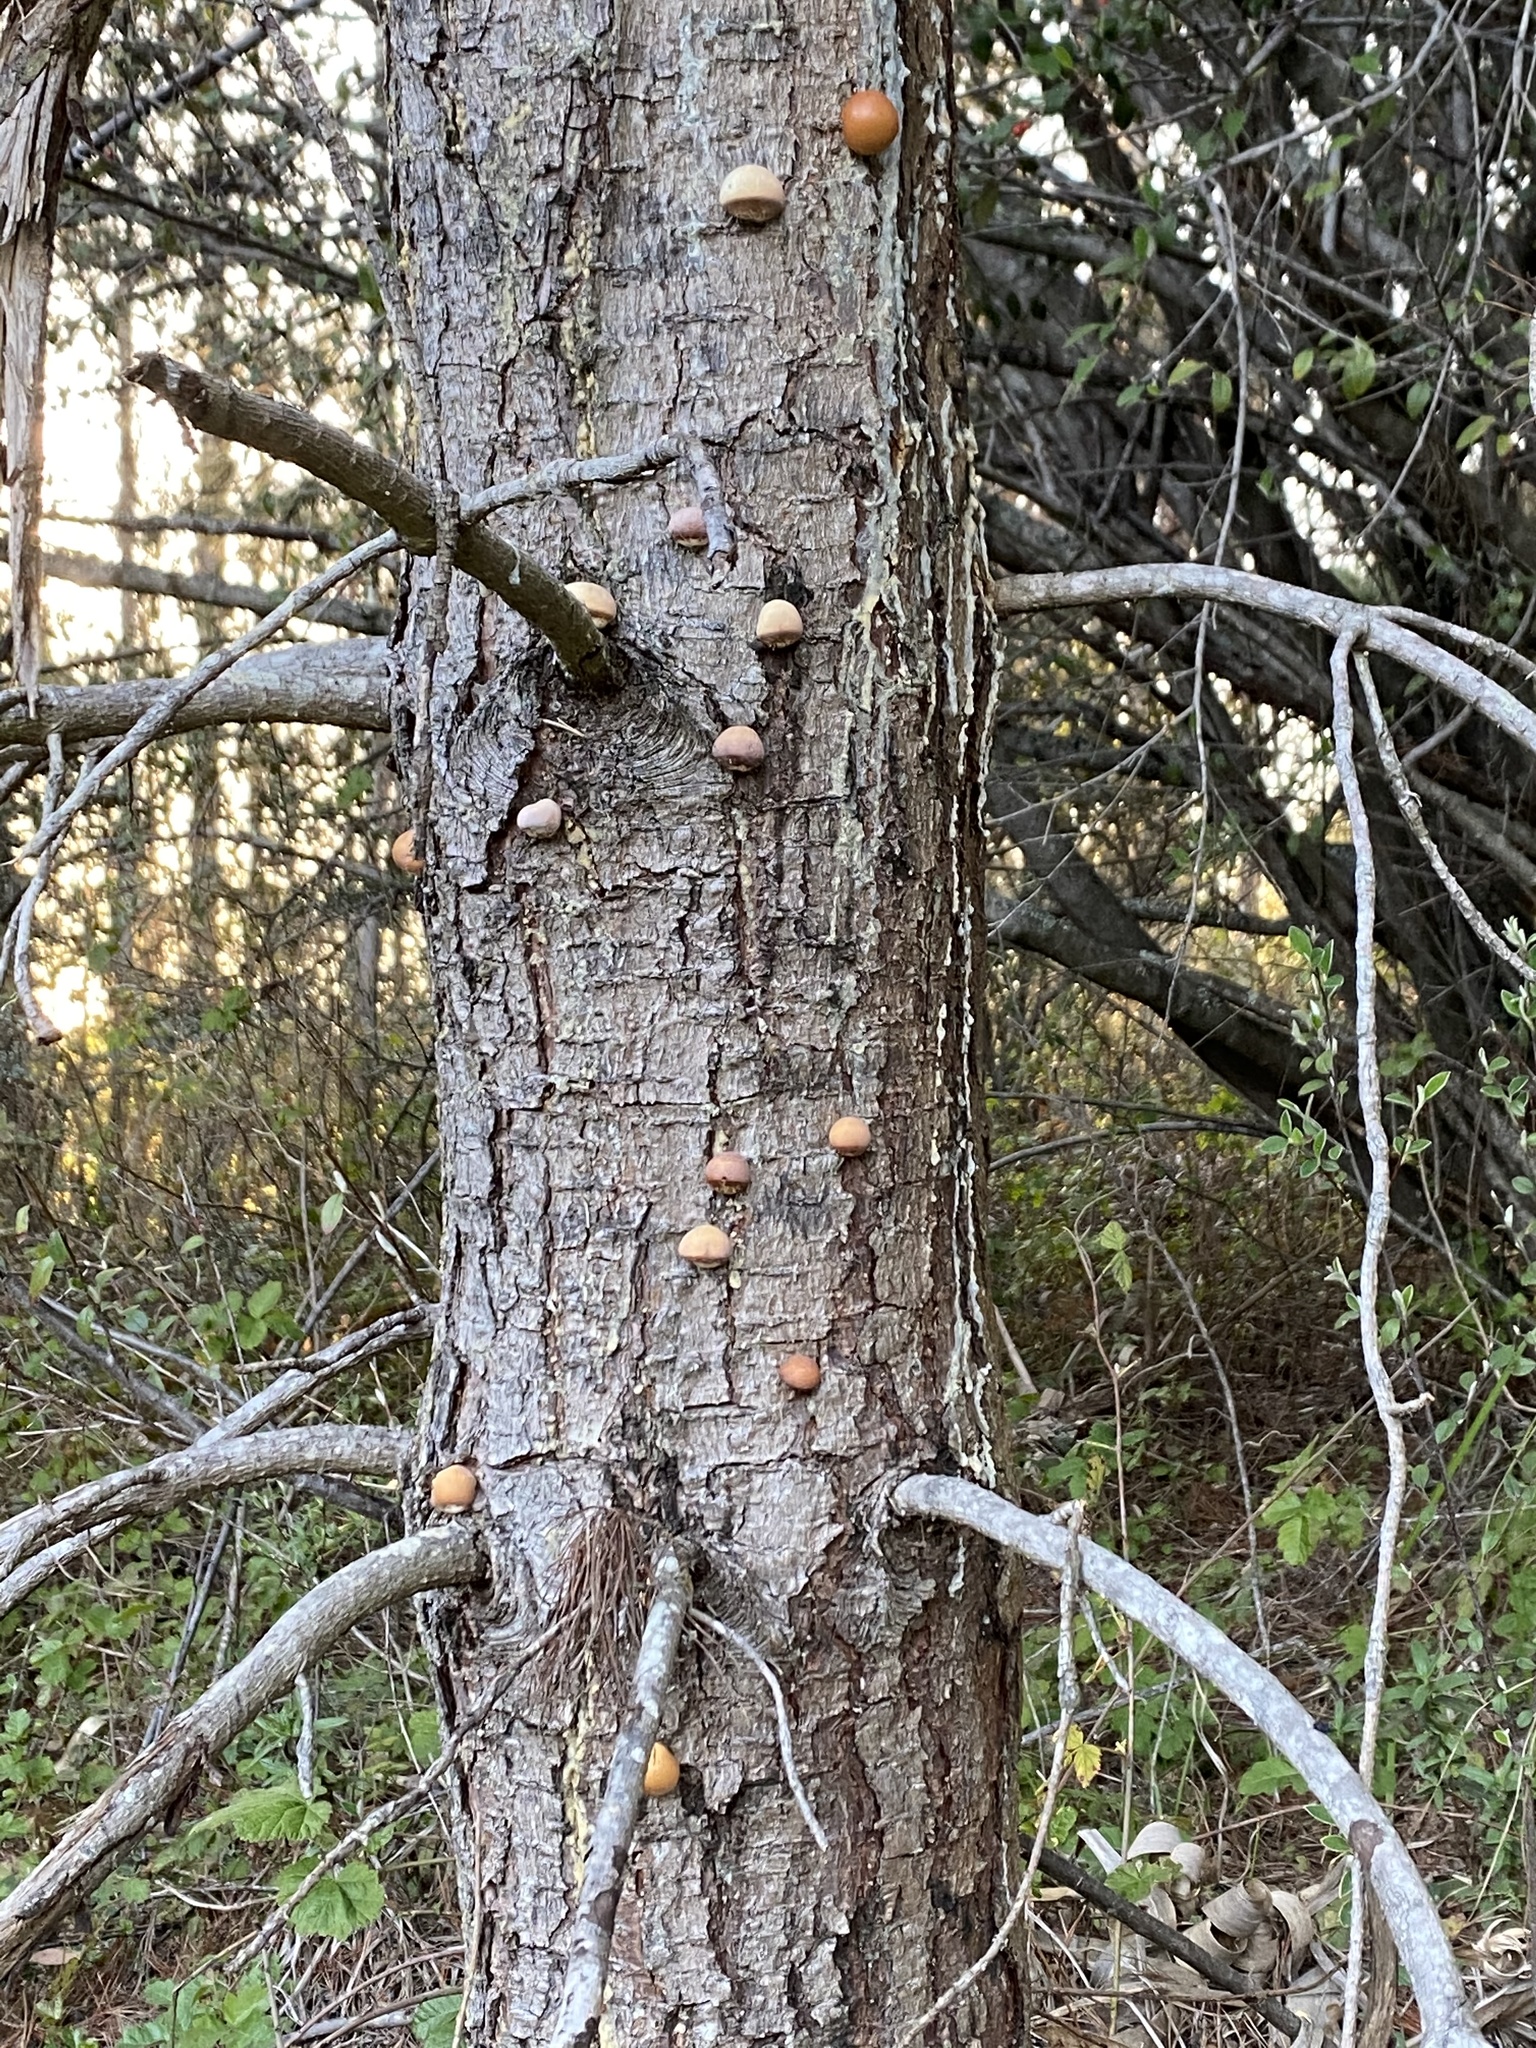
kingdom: Fungi
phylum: Basidiomycota
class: Agaricomycetes
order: Polyporales
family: Polyporaceae
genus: Cryptoporus
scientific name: Cryptoporus volvatus
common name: Veiled polypore
